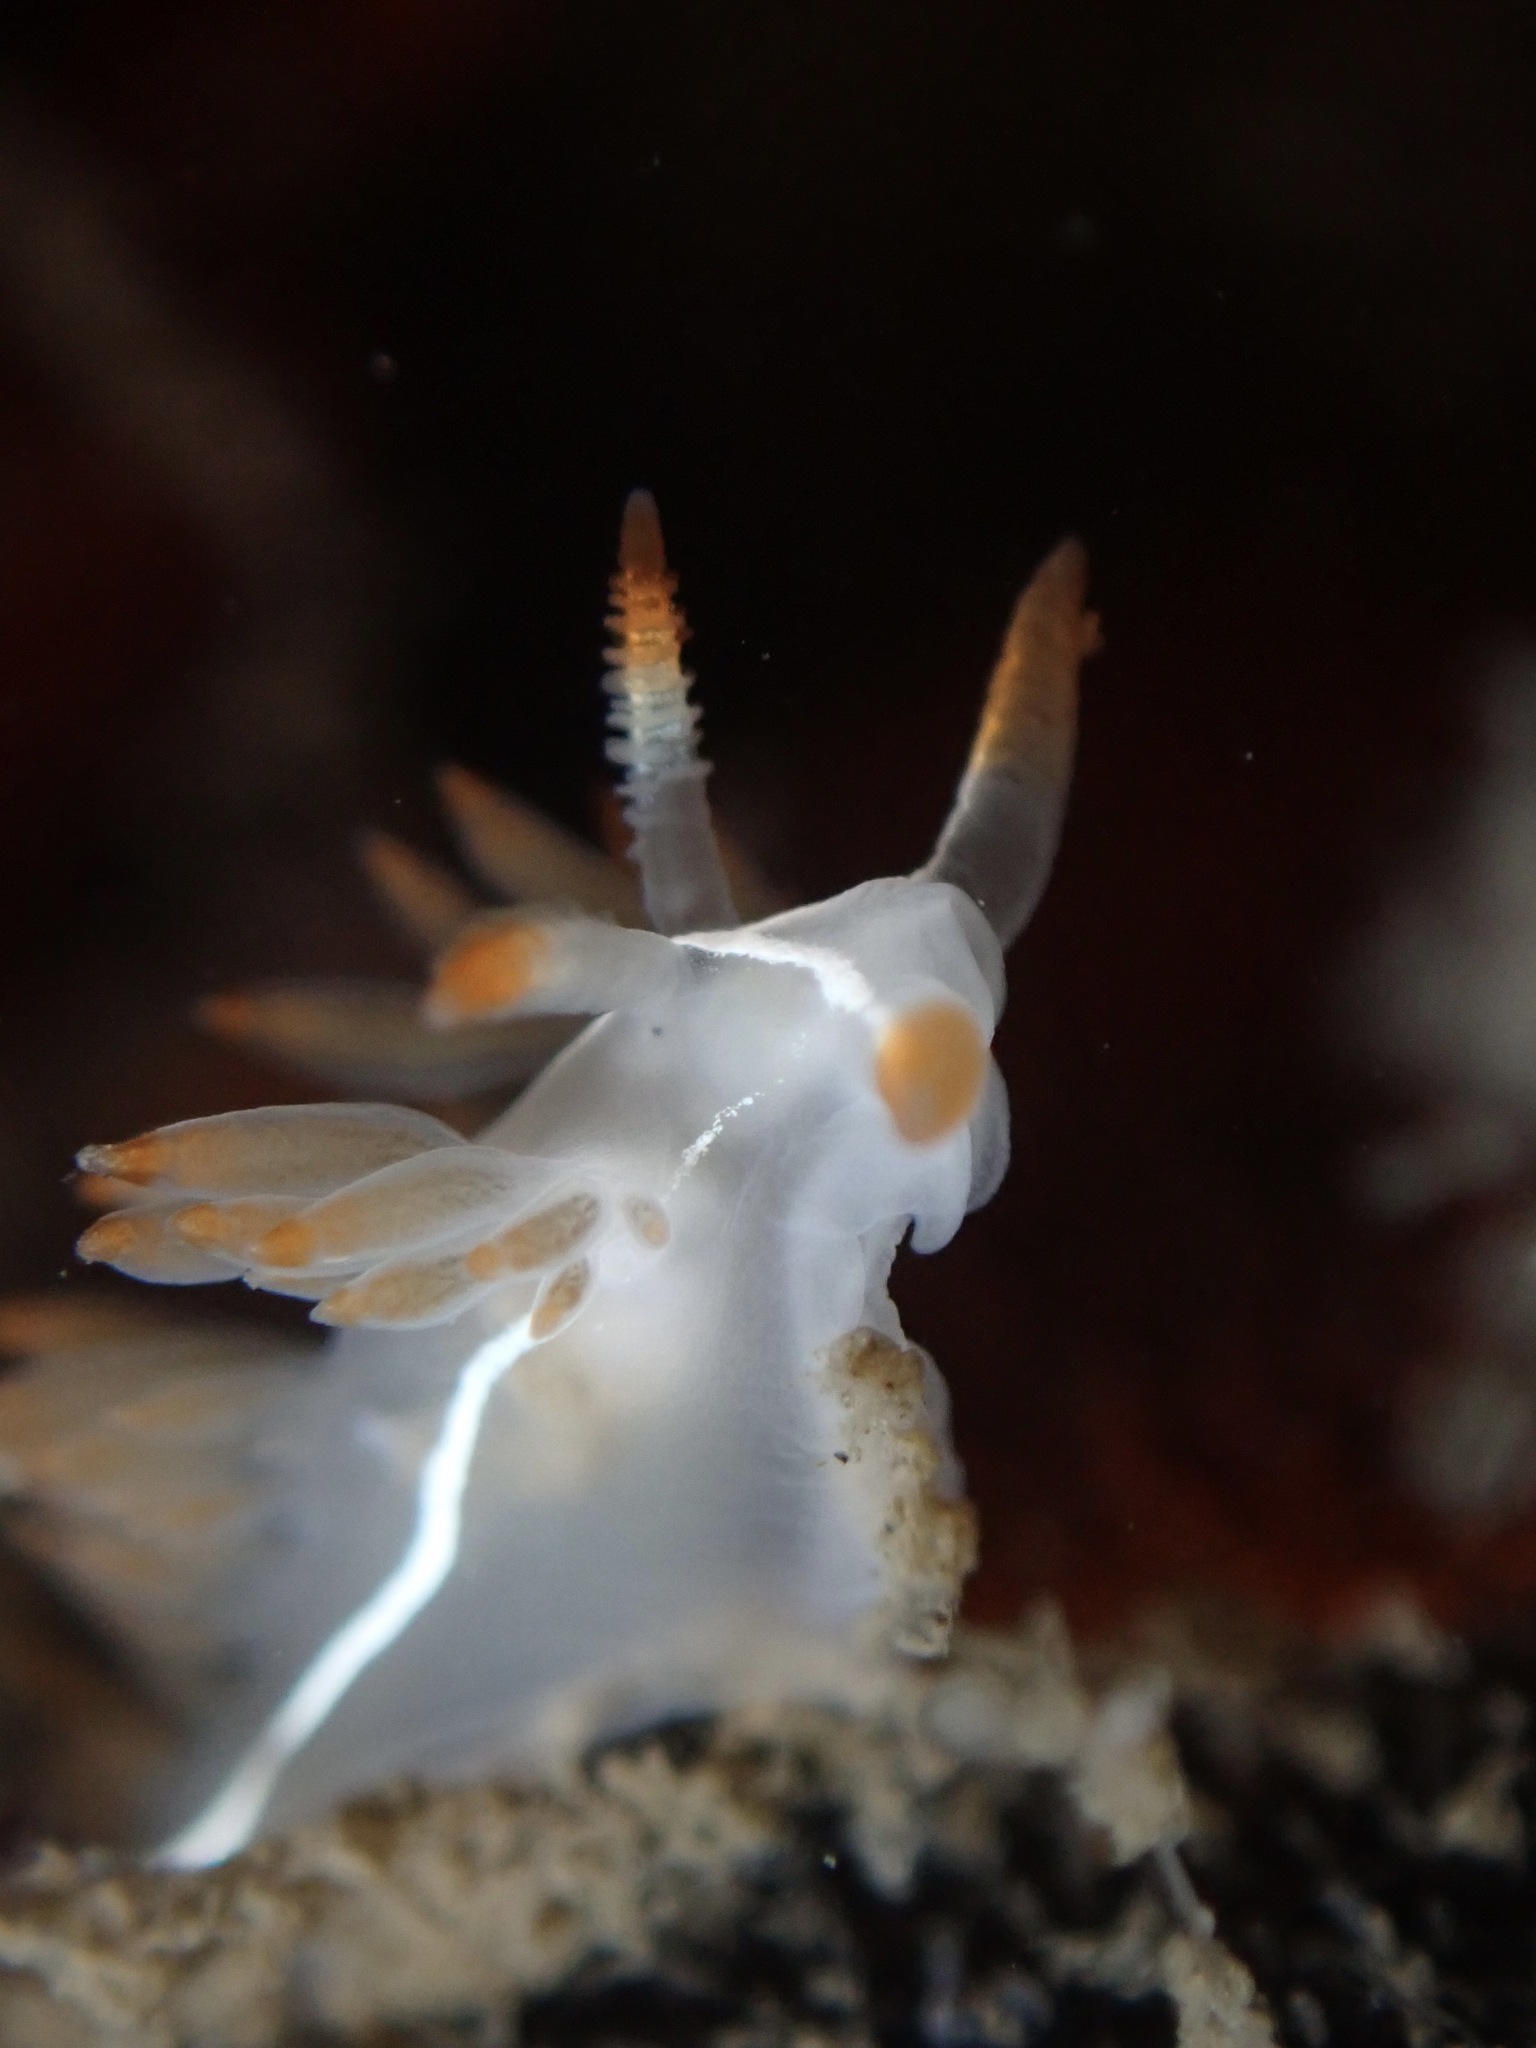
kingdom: Animalia
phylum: Mollusca
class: Gastropoda
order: Nudibranchia
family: Coryphellidae
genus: Coryphella
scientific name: Coryphella trilineata
